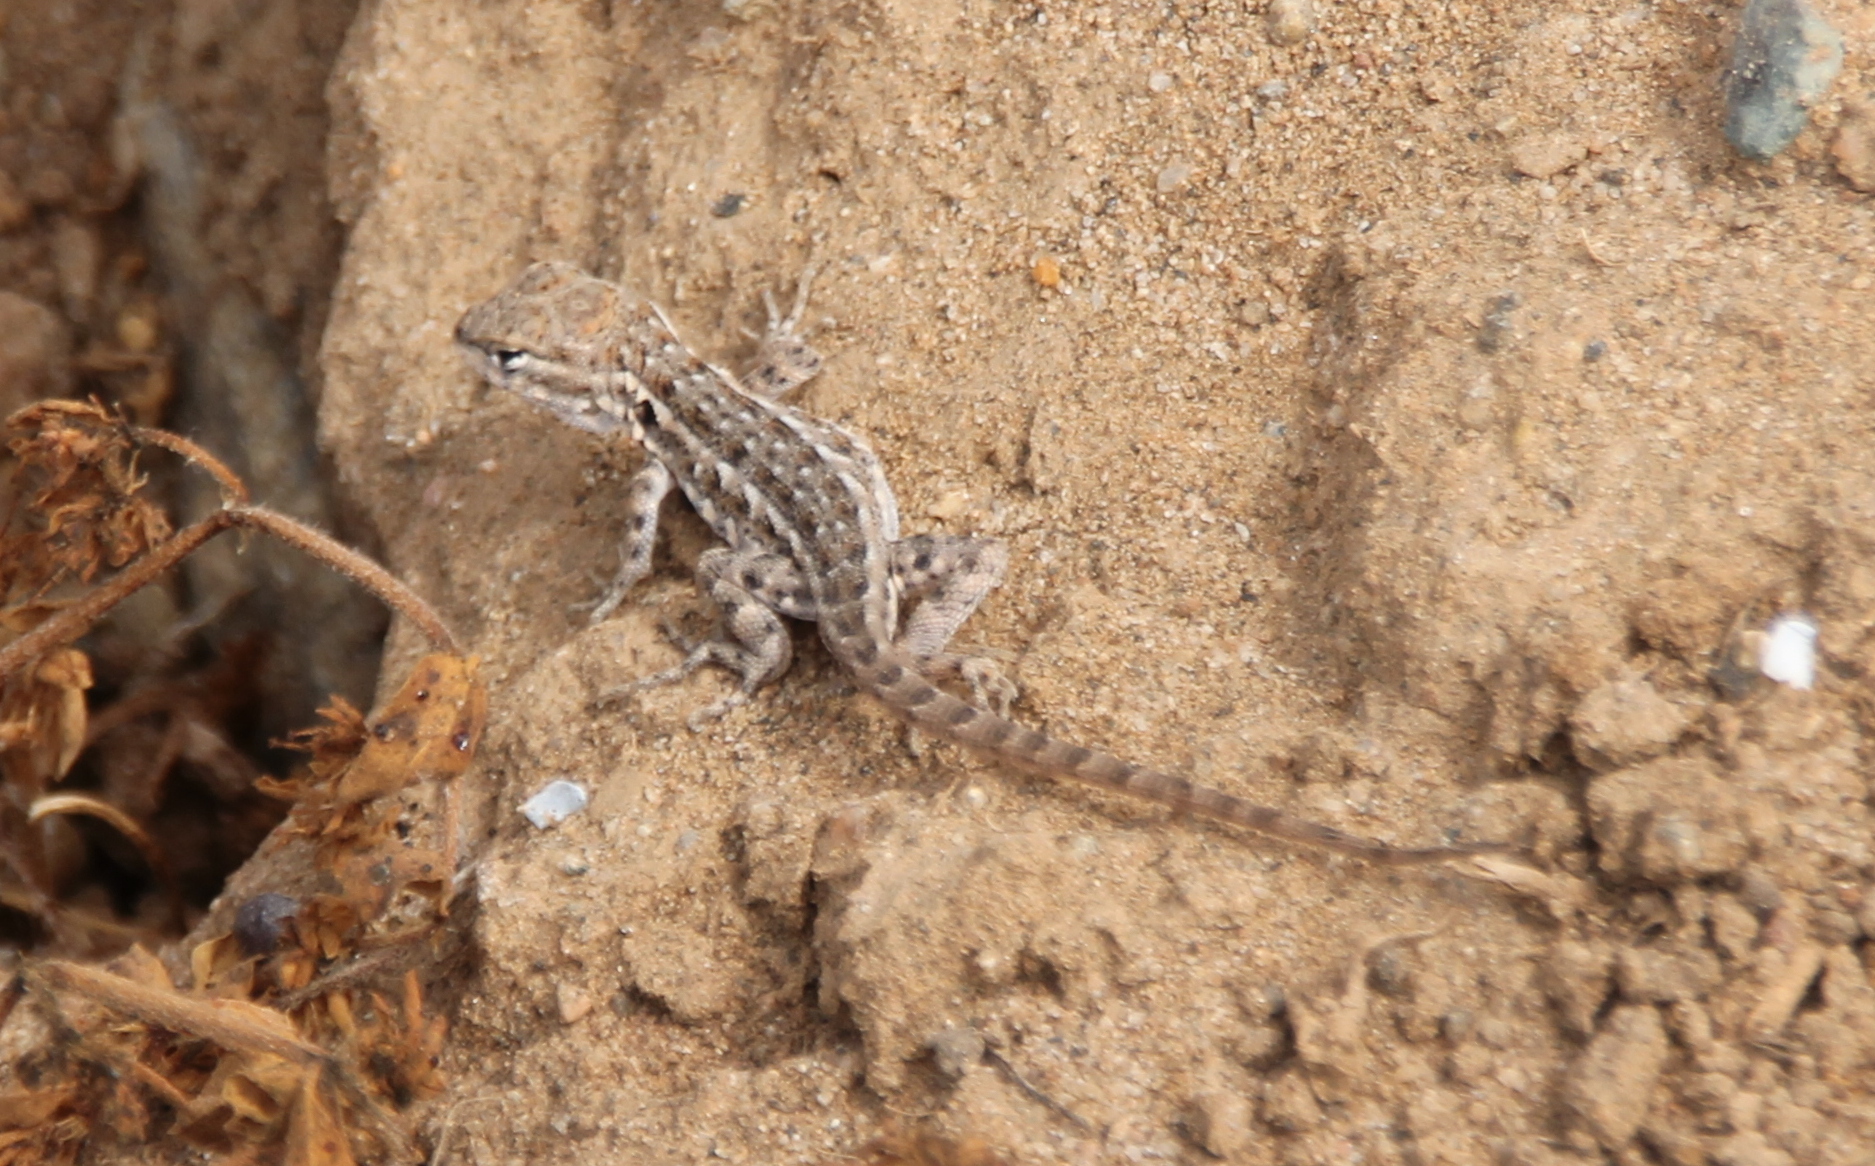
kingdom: Animalia
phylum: Chordata
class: Squamata
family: Phrynosomatidae
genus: Uta
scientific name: Uta stansburiana
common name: Side-blotched lizard
